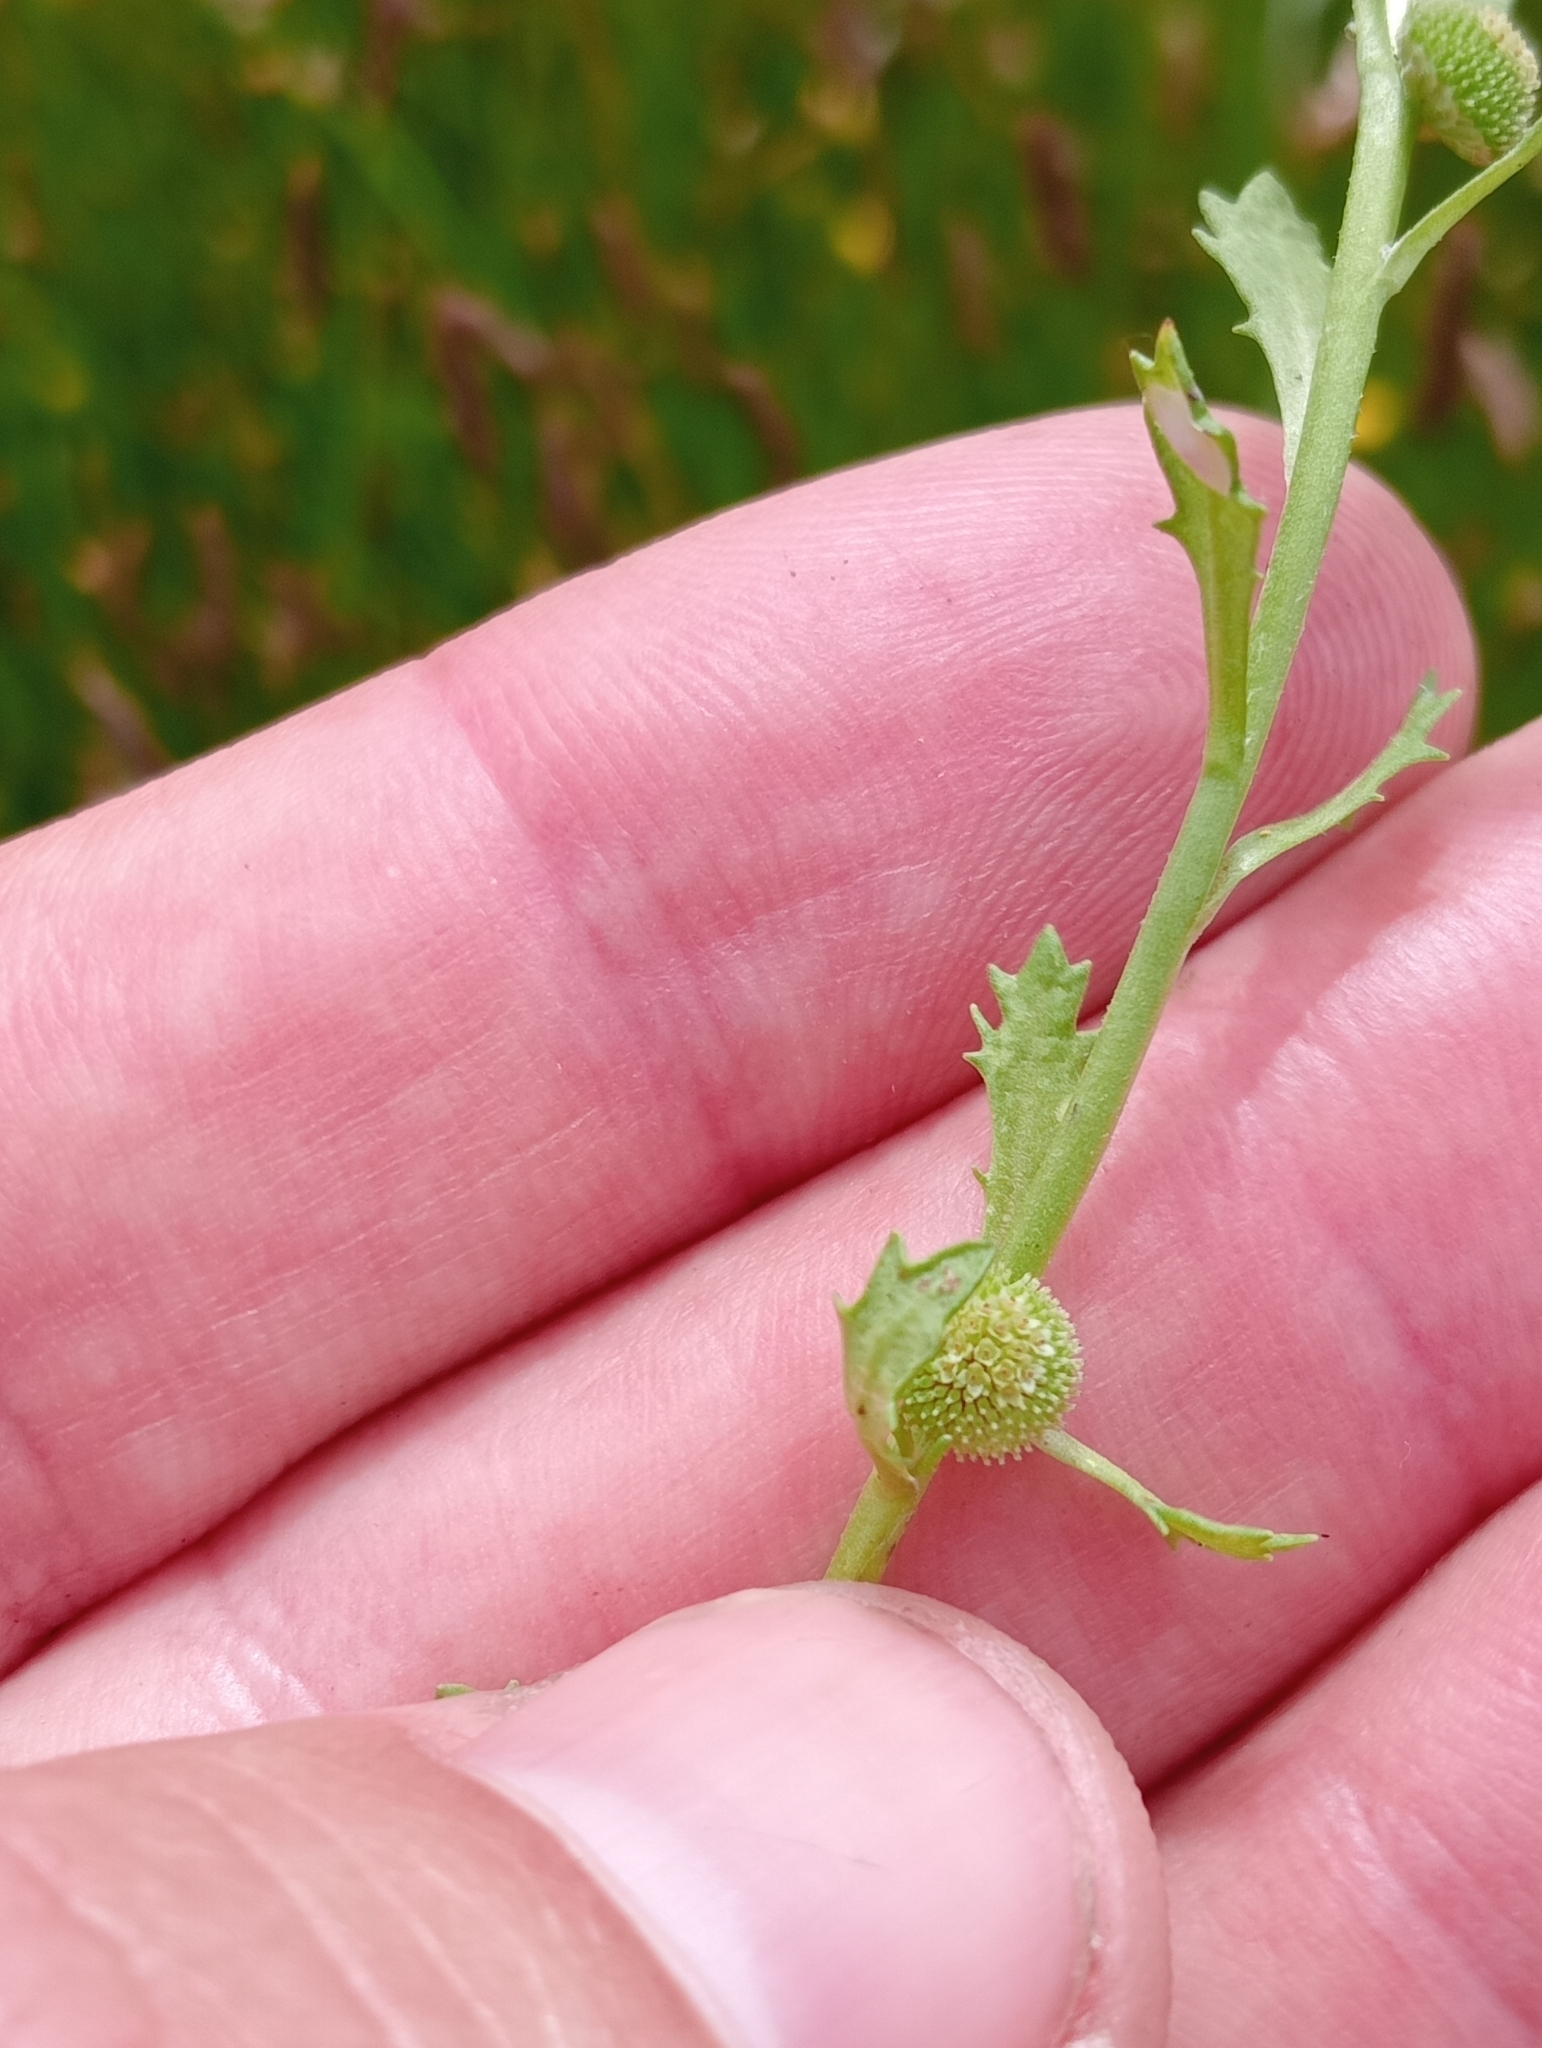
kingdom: Plantae
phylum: Tracheophyta
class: Magnoliopsida
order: Asterales
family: Asteraceae
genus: Centipeda
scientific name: Centipeda aotearoana
